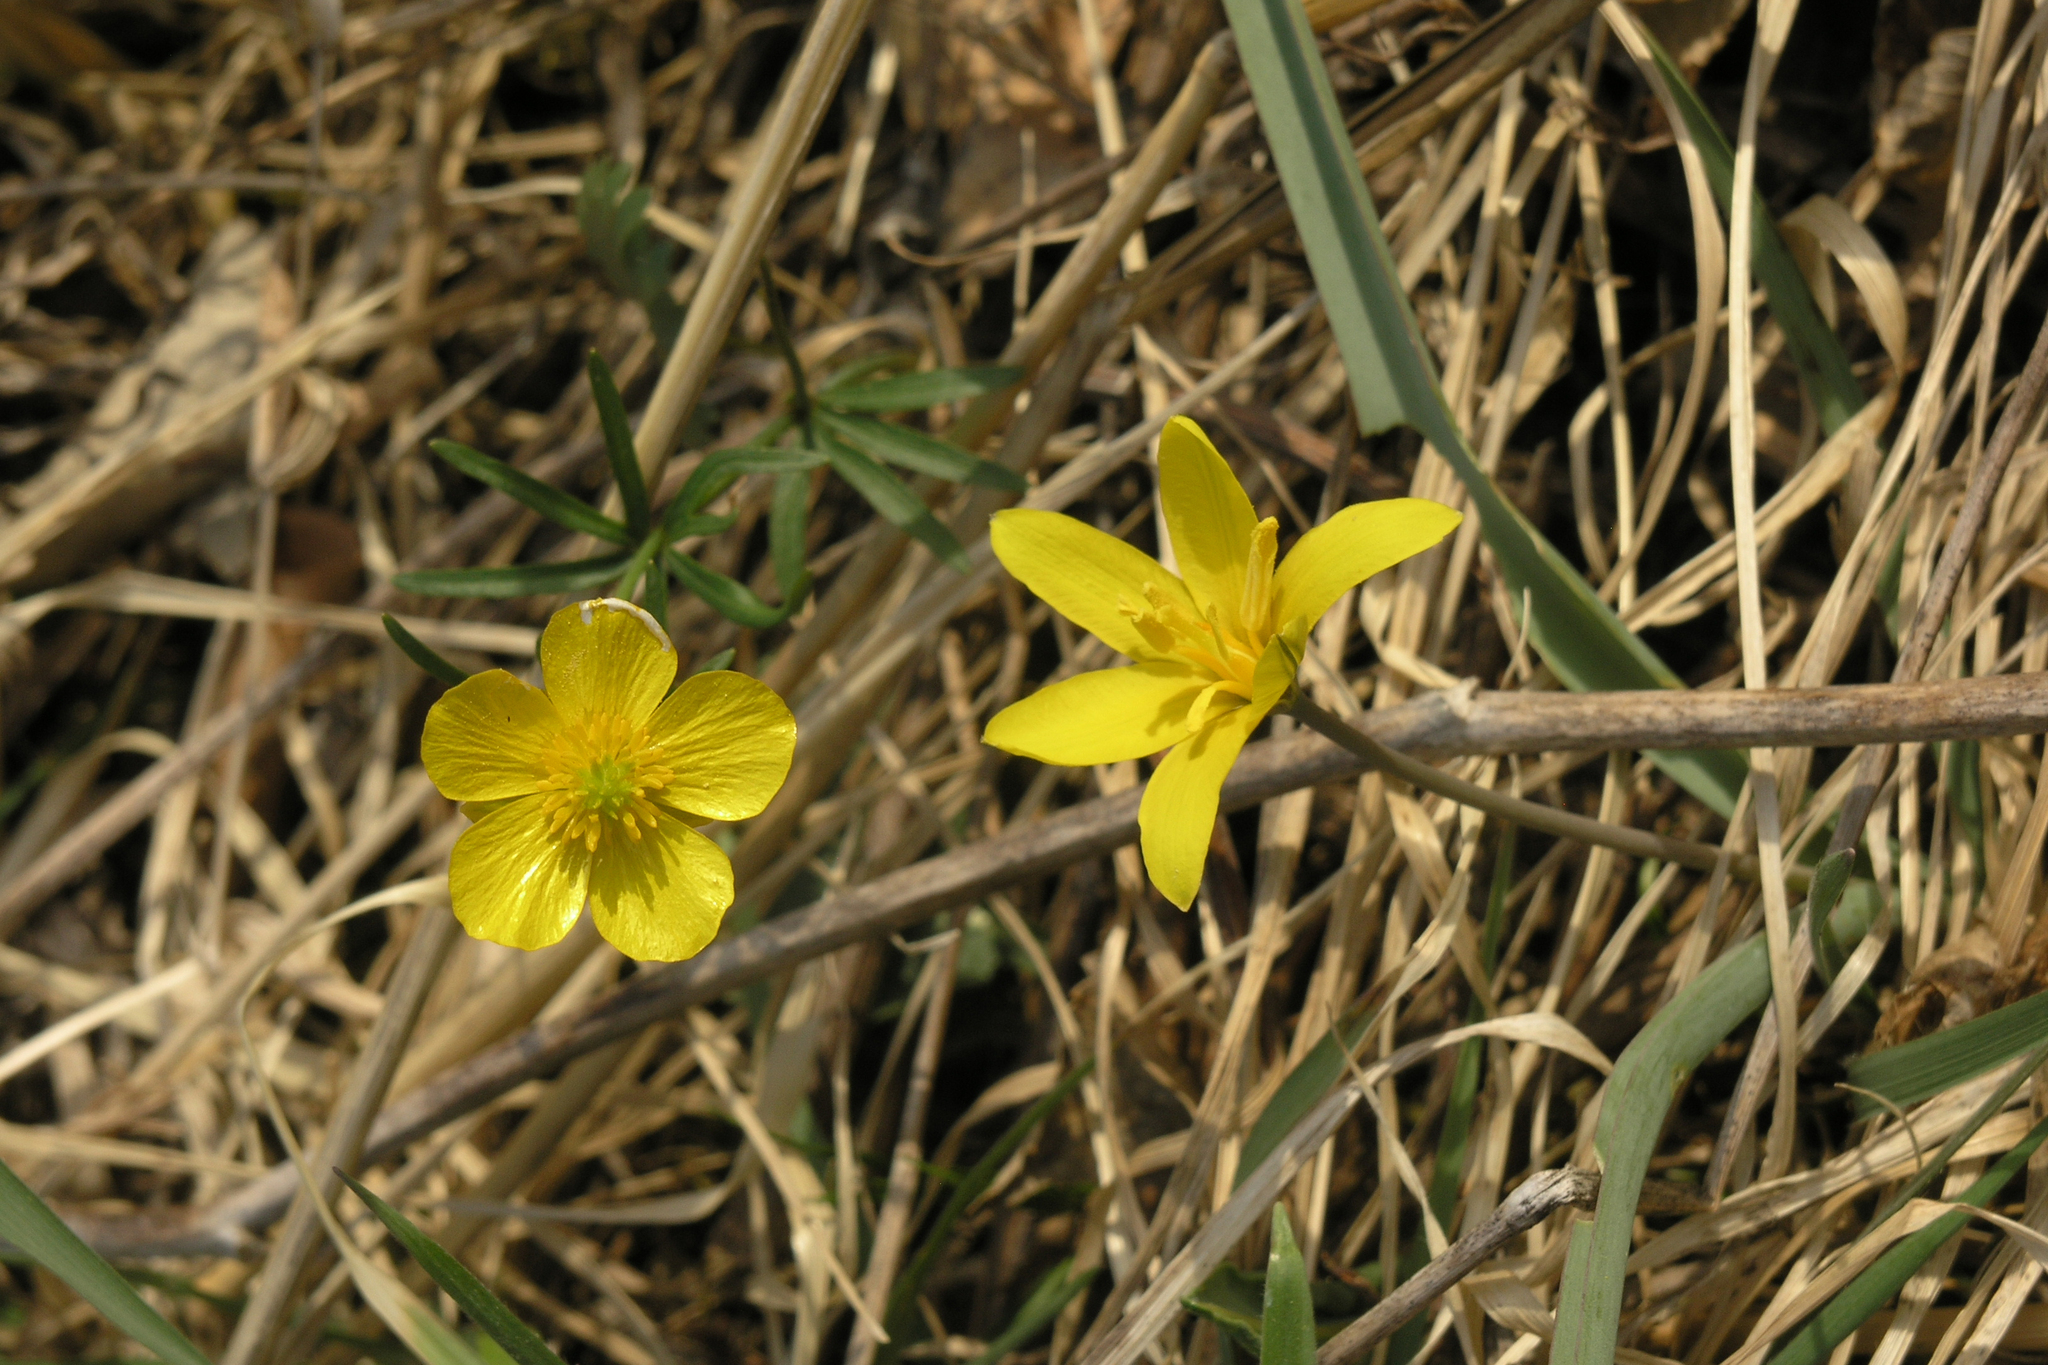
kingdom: Plantae
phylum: Tracheophyta
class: Magnoliopsida
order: Ranunculales
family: Ranunculaceae
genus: Ranunculus
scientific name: Ranunculus polyrhizos
